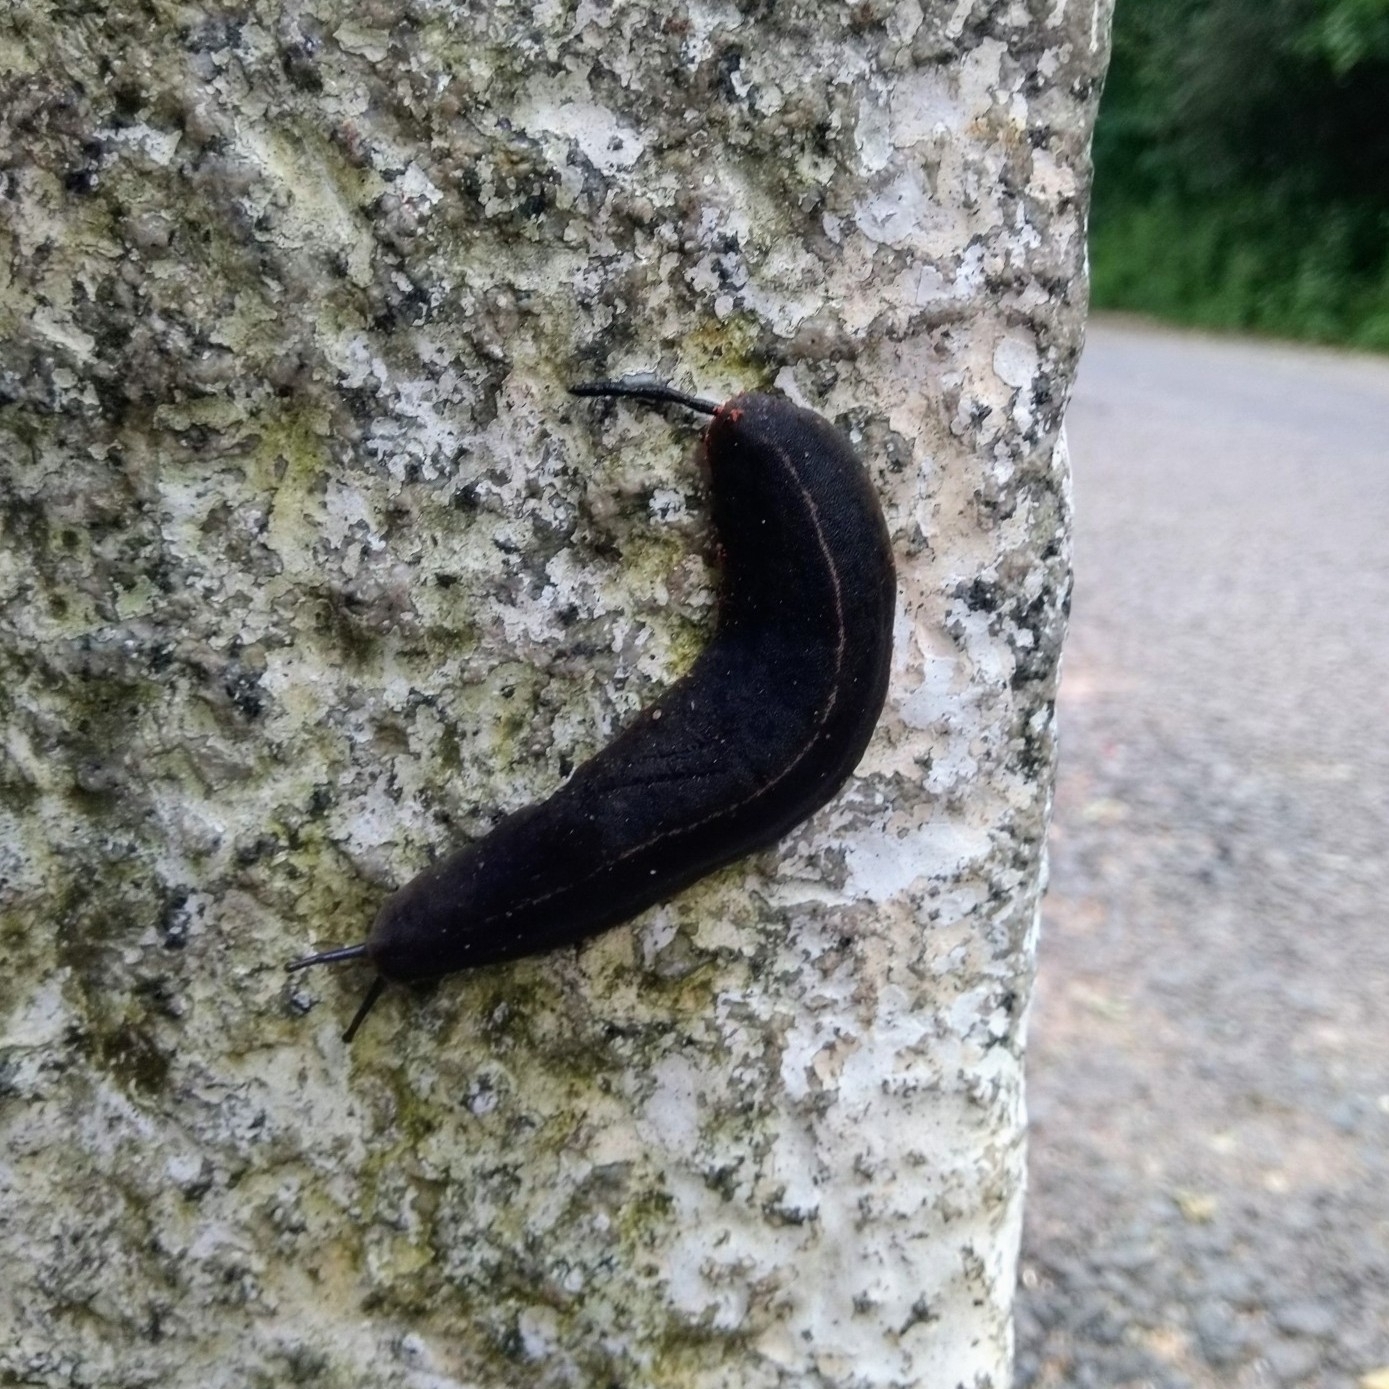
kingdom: Animalia
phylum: Mollusca
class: Gastropoda
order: Systellommatophora
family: Veronicellidae
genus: Laevicaulis
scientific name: Laevicaulis alte
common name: Tropical leatherleaf
